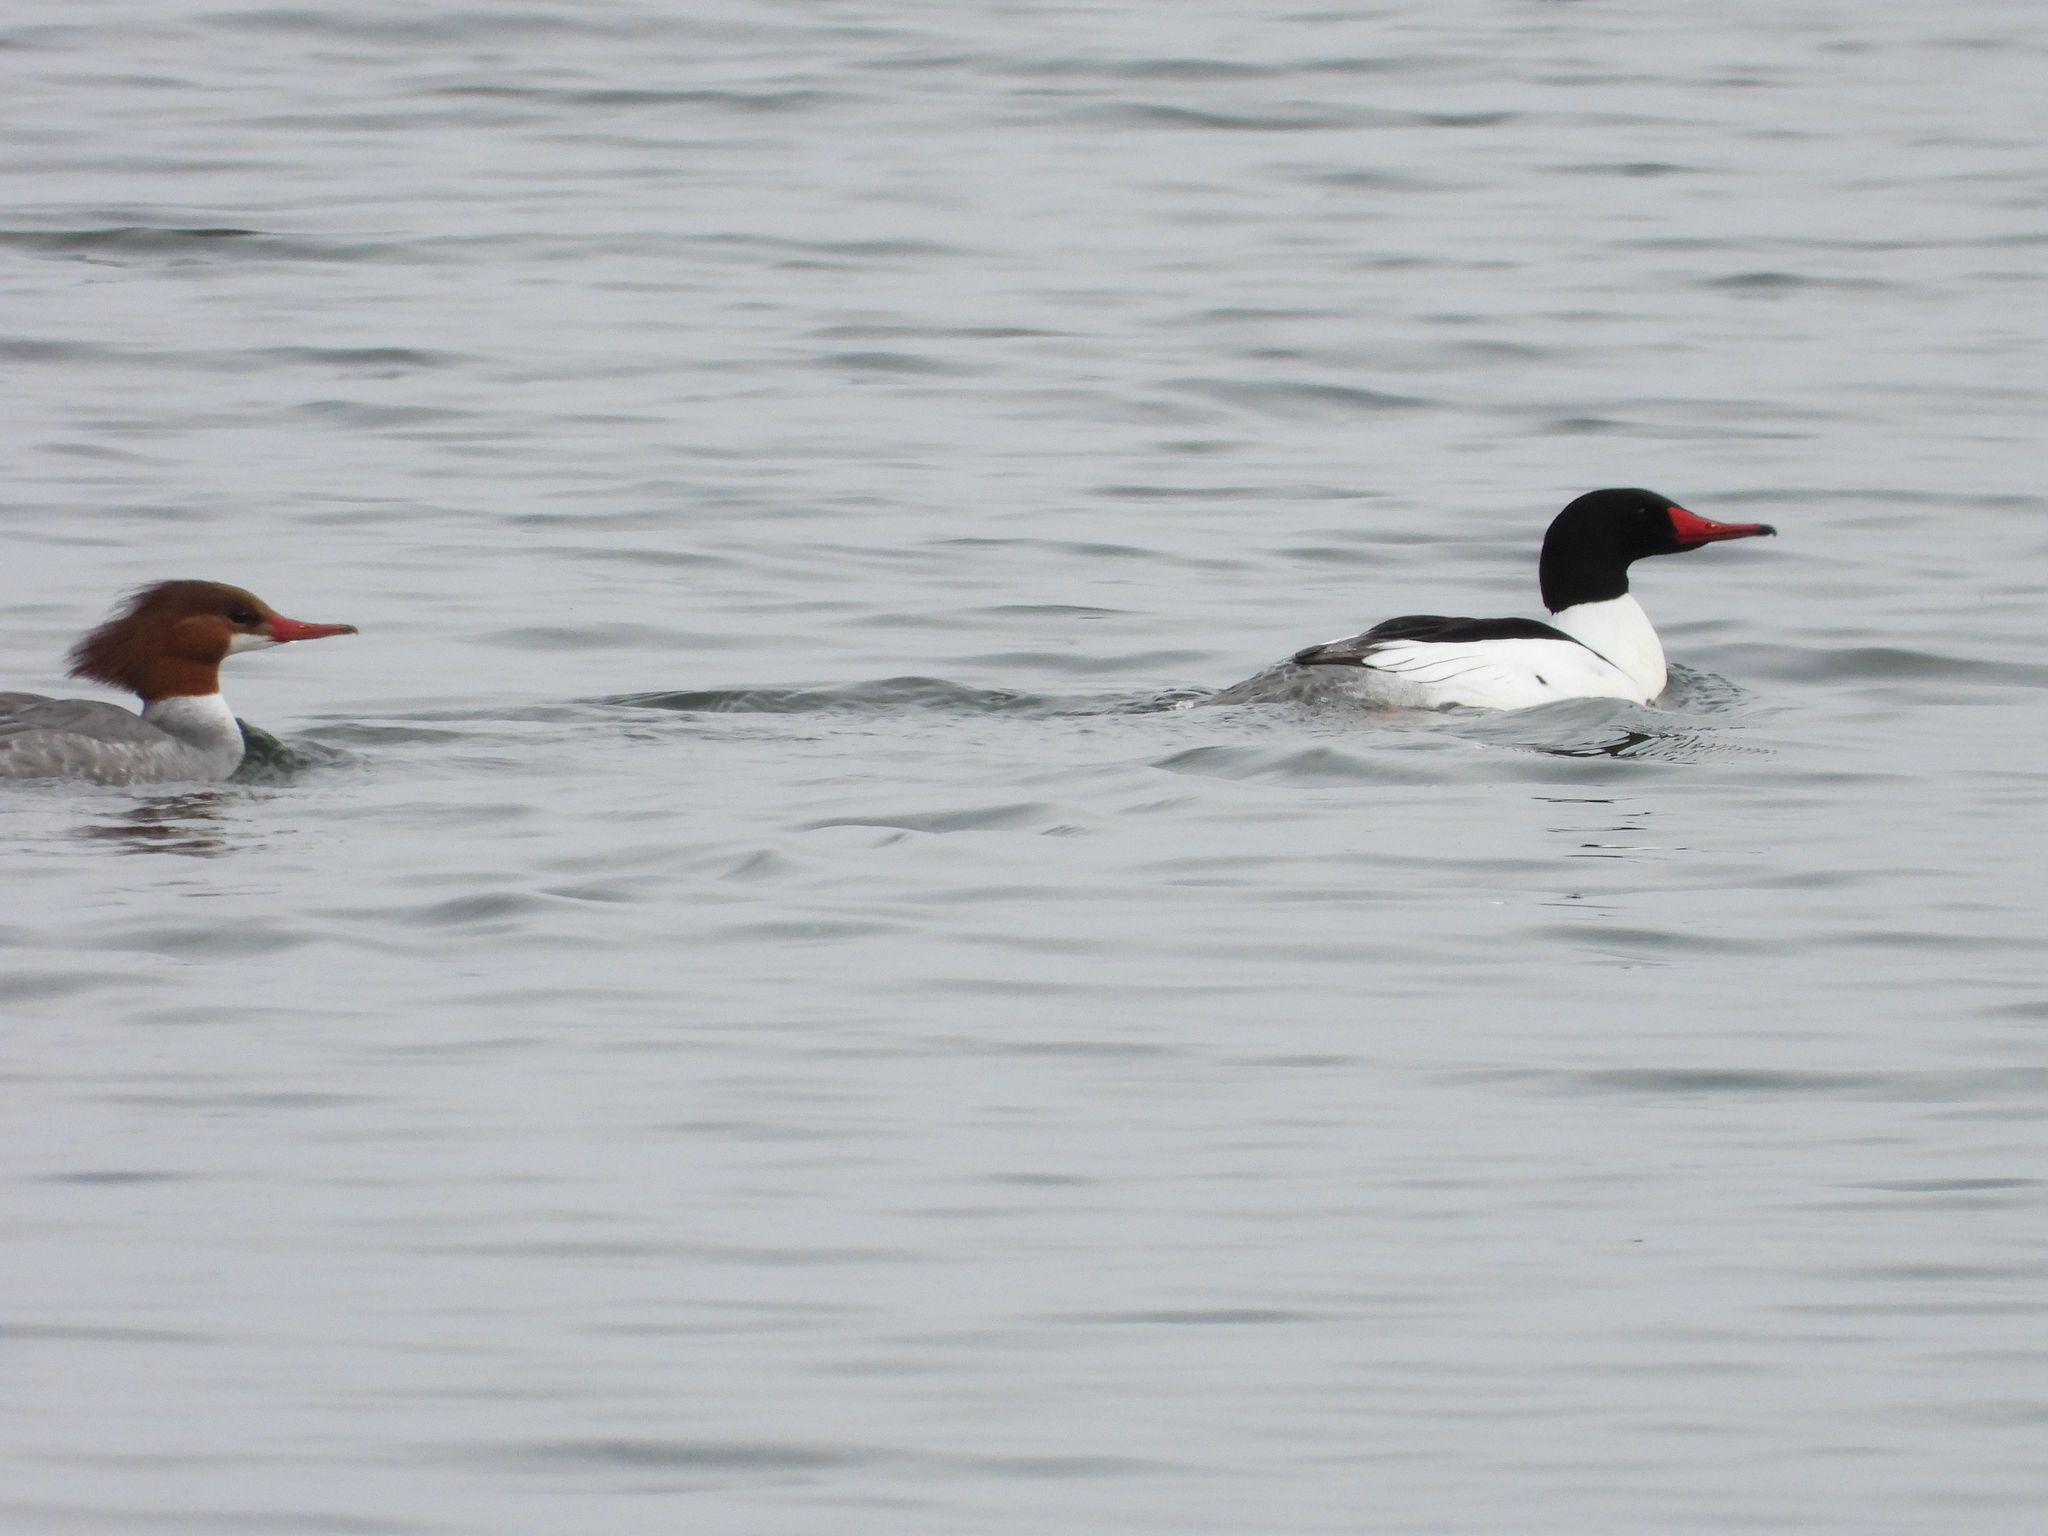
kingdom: Animalia
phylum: Chordata
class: Aves
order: Anseriformes
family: Anatidae
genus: Mergus
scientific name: Mergus merganser
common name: Common merganser
